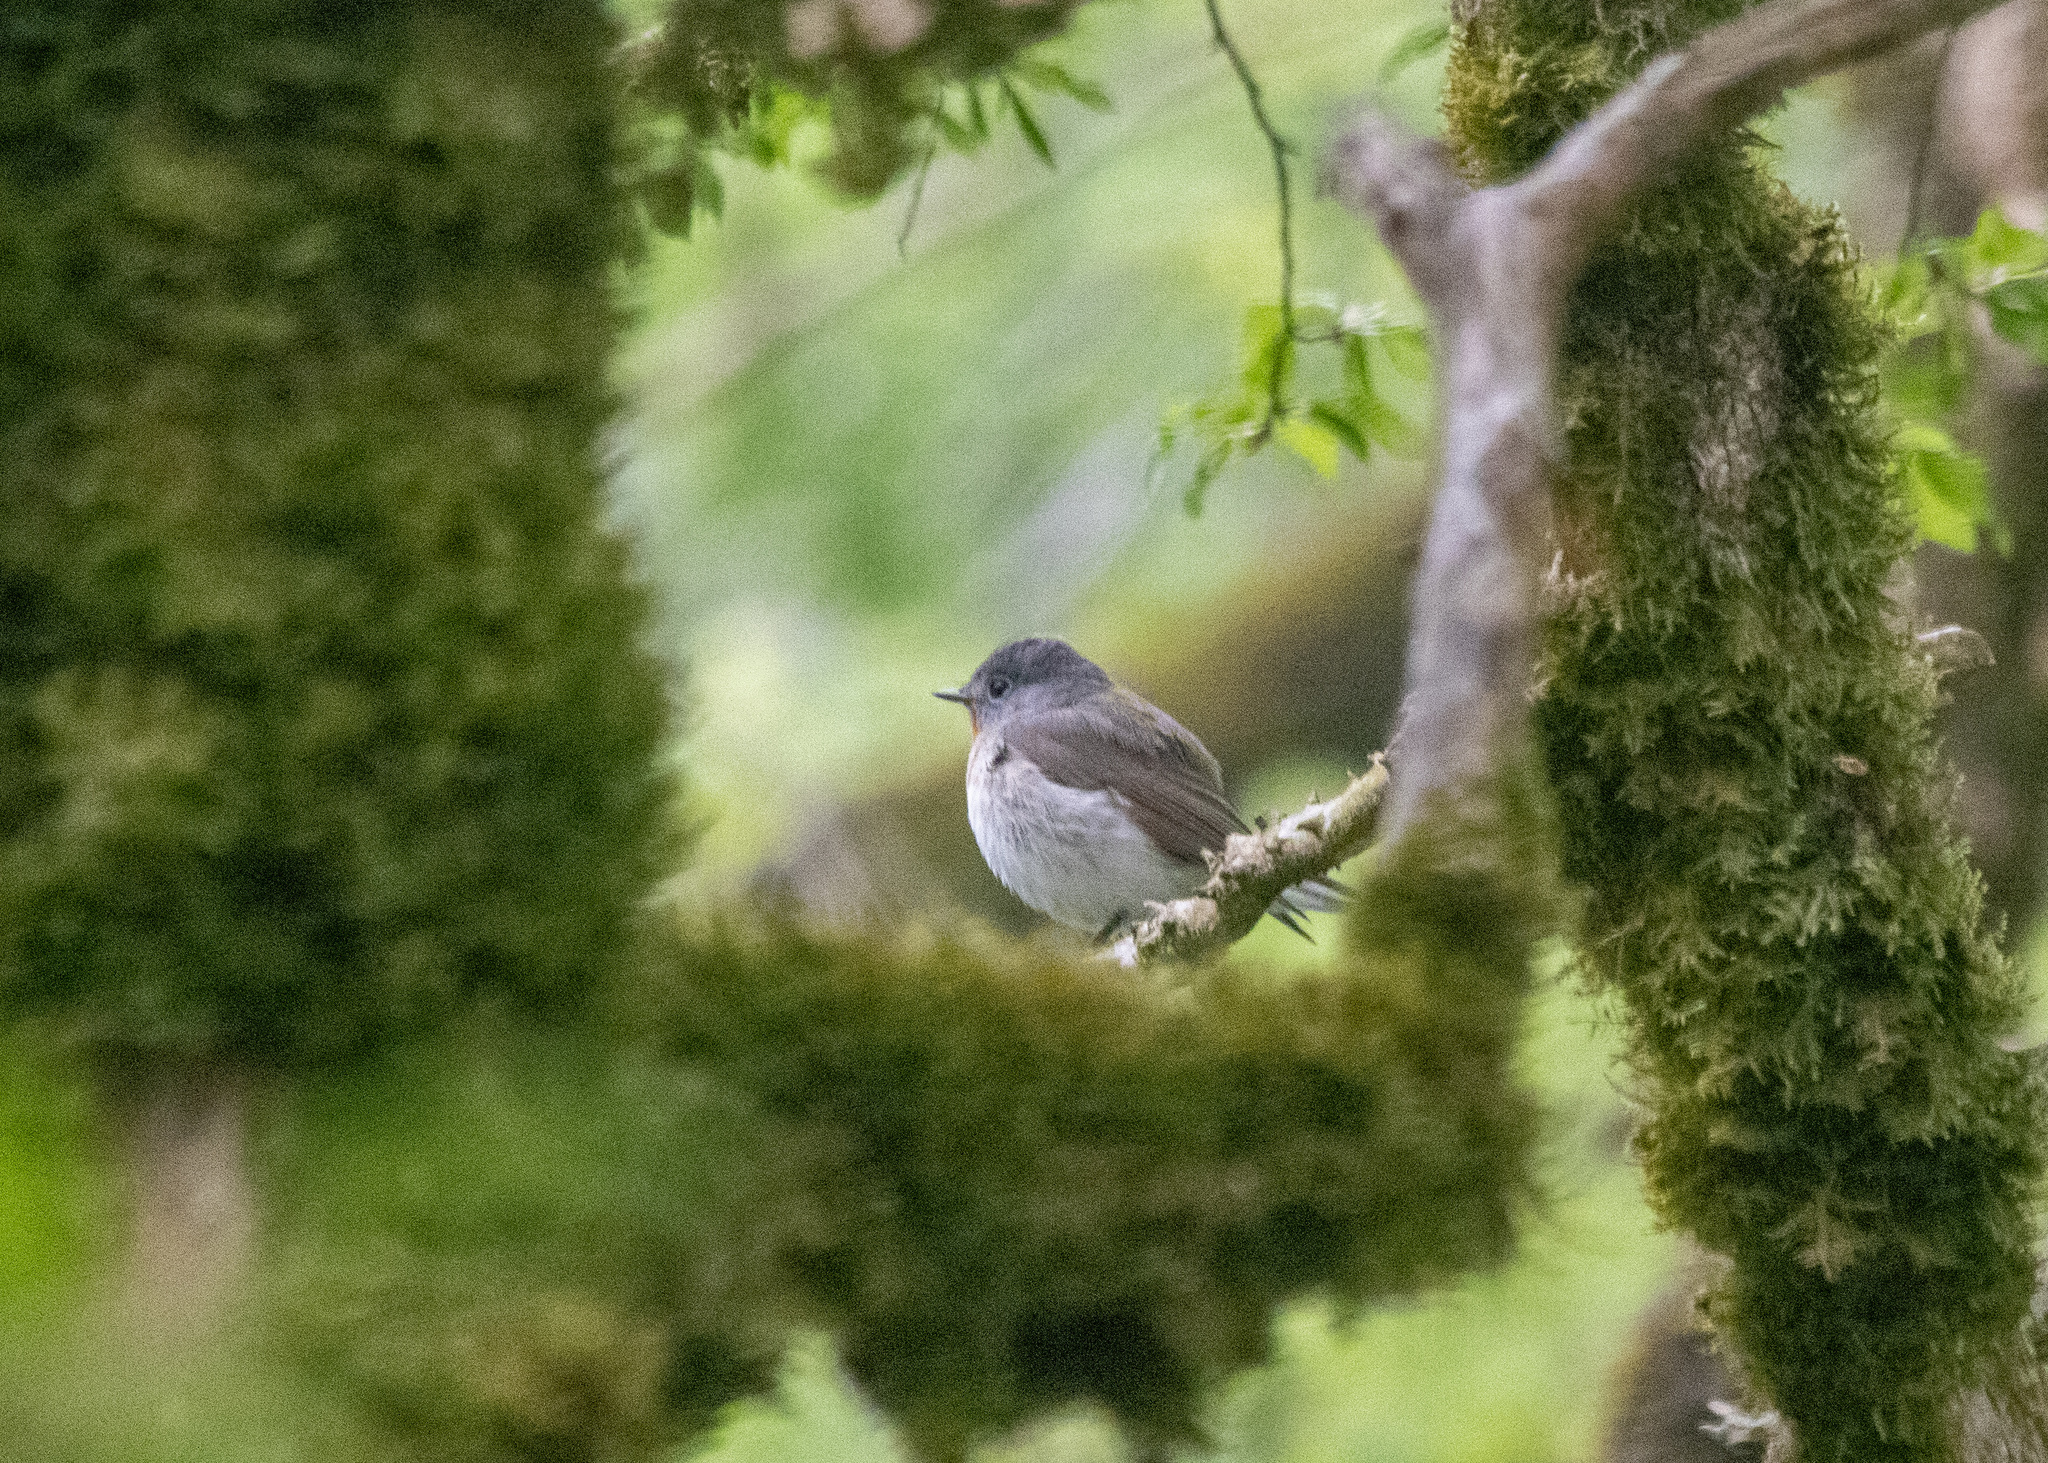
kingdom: Animalia
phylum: Chordata
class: Aves
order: Passeriformes
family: Muscicapidae
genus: Ficedula
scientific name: Ficedula parva
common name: Red-breasted flycatcher
